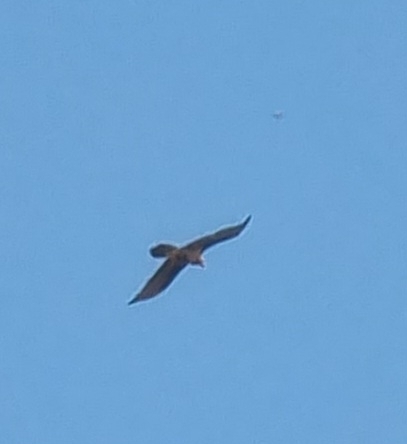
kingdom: Animalia
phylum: Chordata
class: Aves
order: Accipitriformes
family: Accipitridae
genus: Gypaetus
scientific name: Gypaetus barbatus
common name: Bearded vulture
